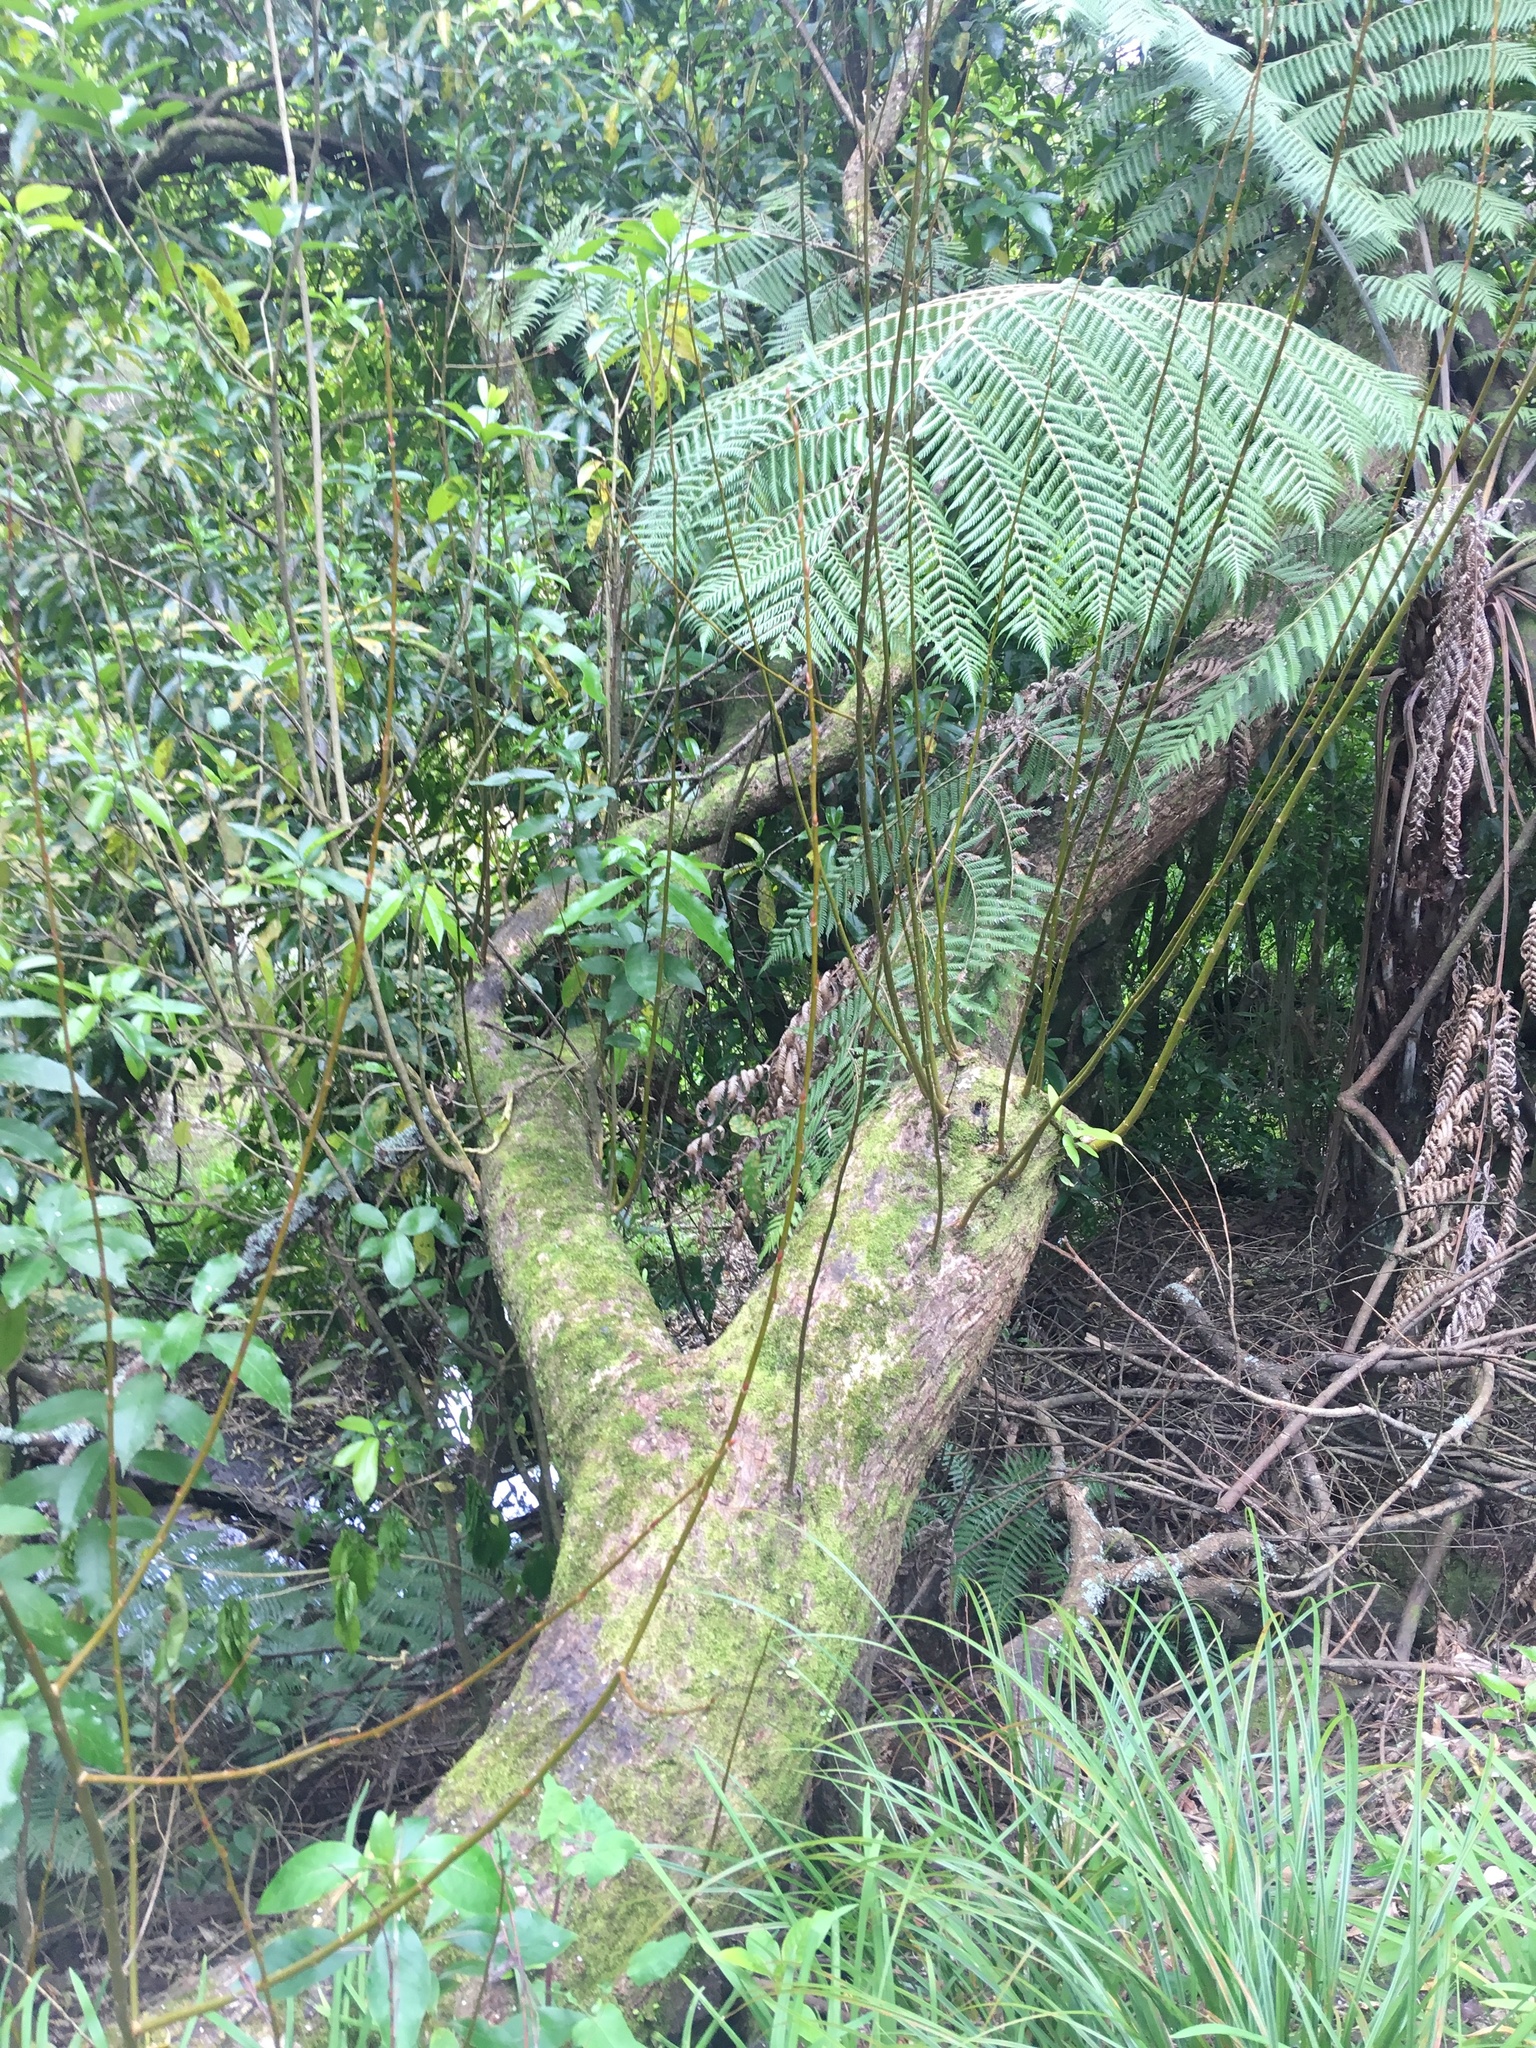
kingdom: Plantae
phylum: Tracheophyta
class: Polypodiopsida
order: Cyatheales
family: Cyatheaceae
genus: Alsophila
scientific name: Alsophila dealbata
